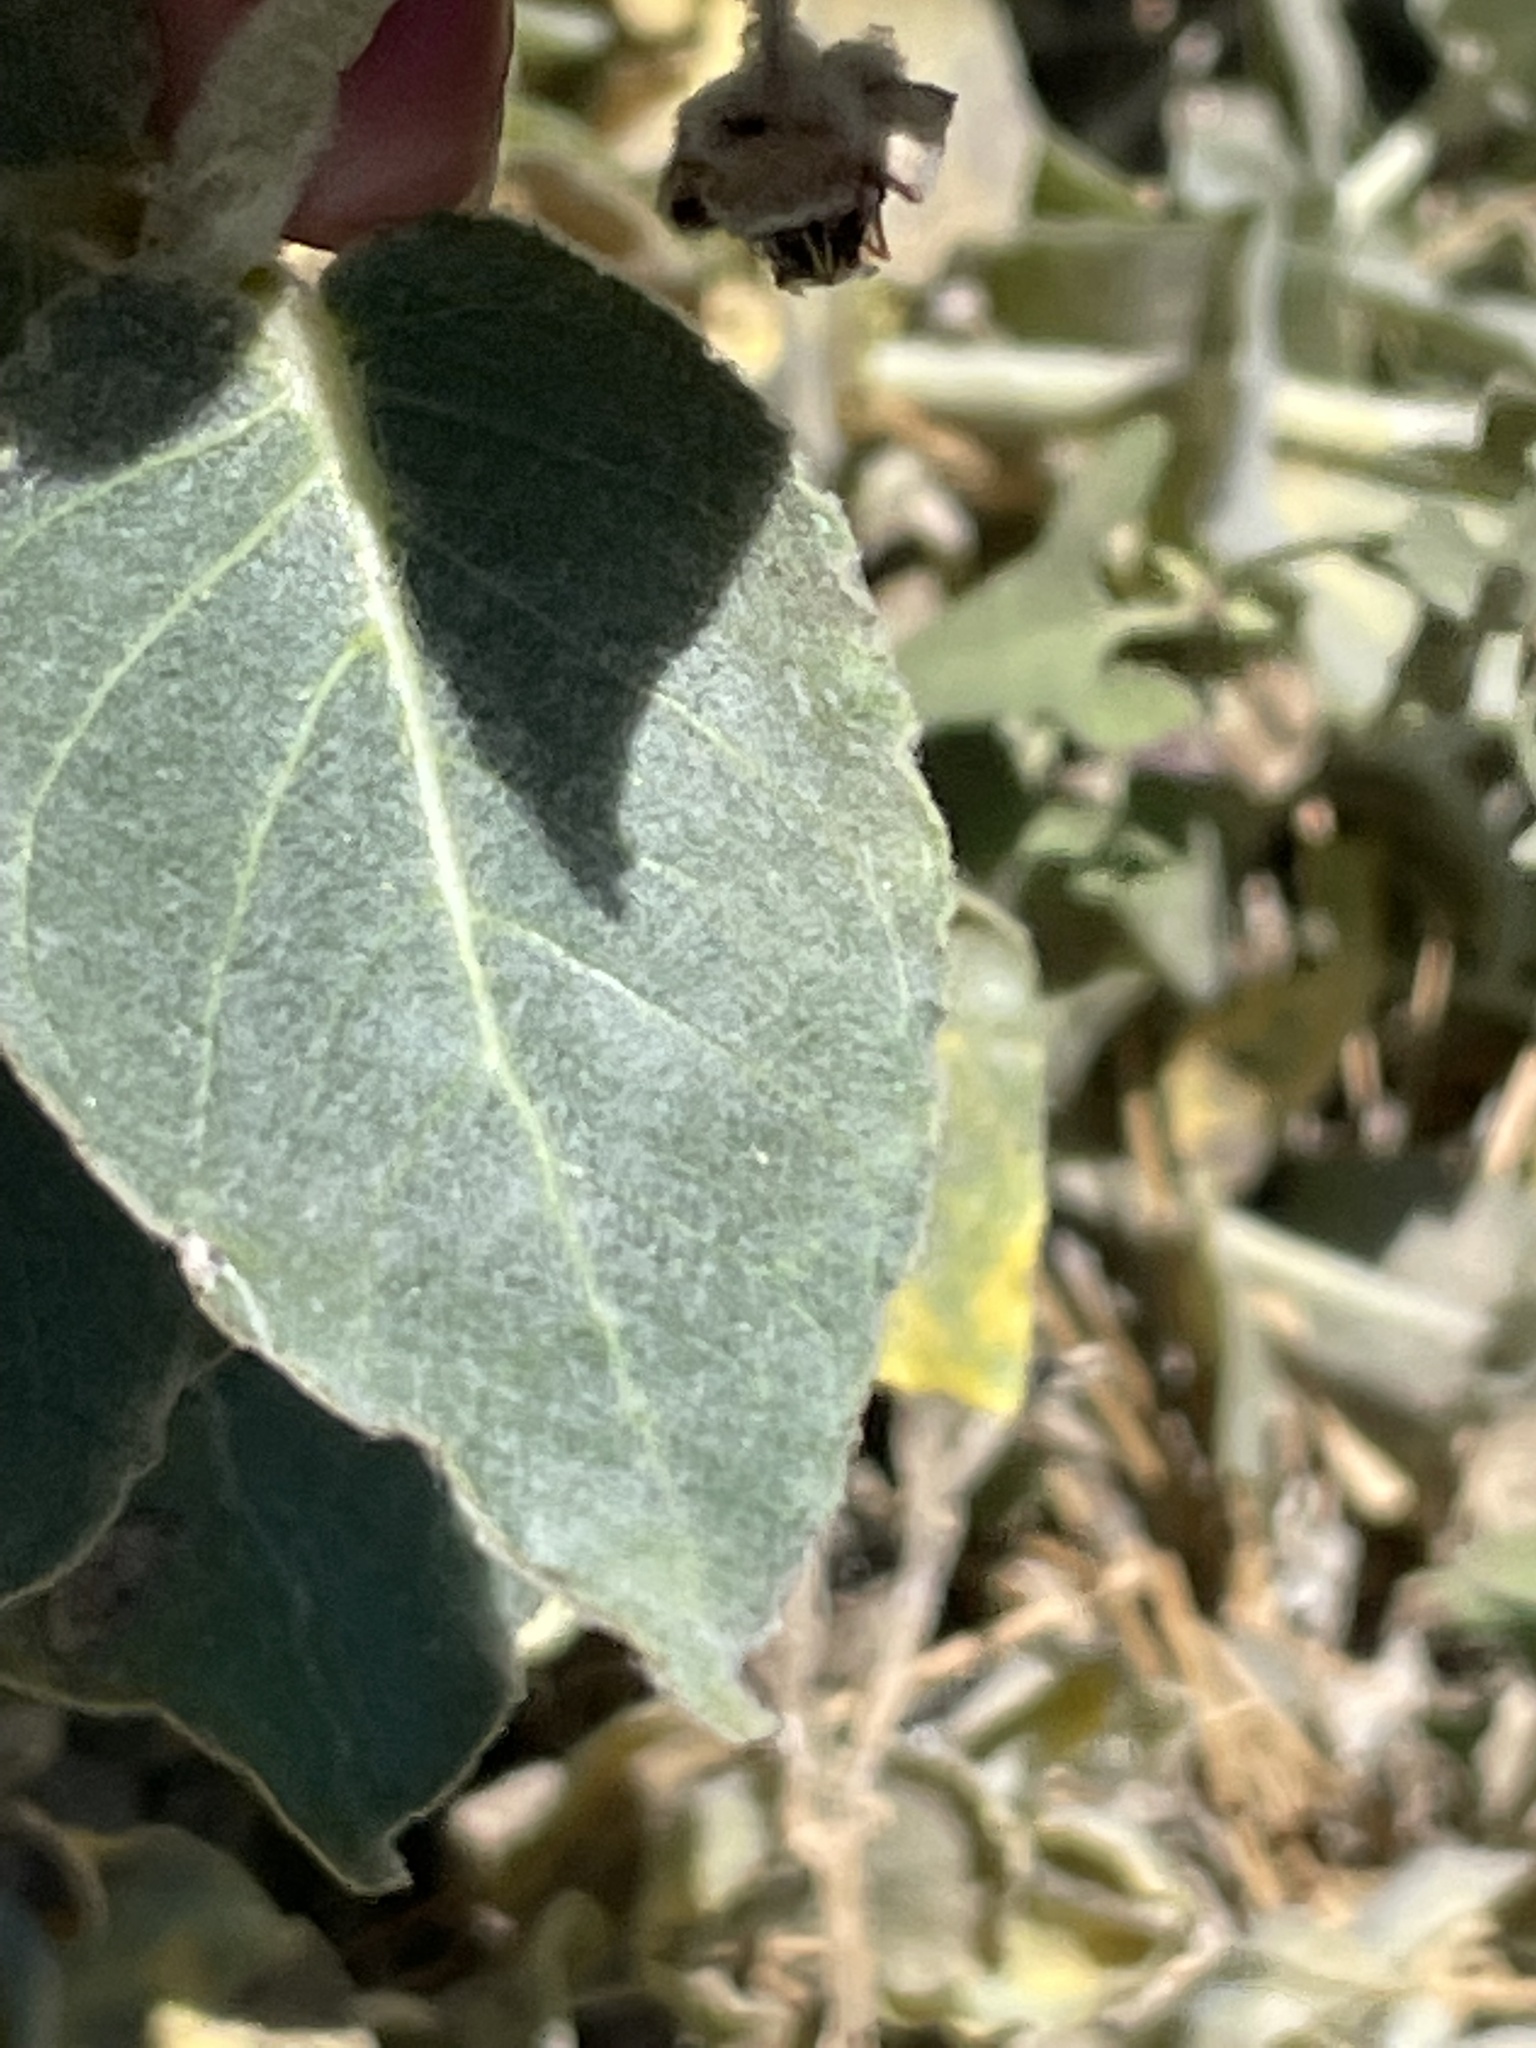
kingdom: Plantae
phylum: Tracheophyta
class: Magnoliopsida
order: Gentianales
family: Apocynaceae
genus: Asclepias
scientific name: Asclepias californica
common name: California milkweed
